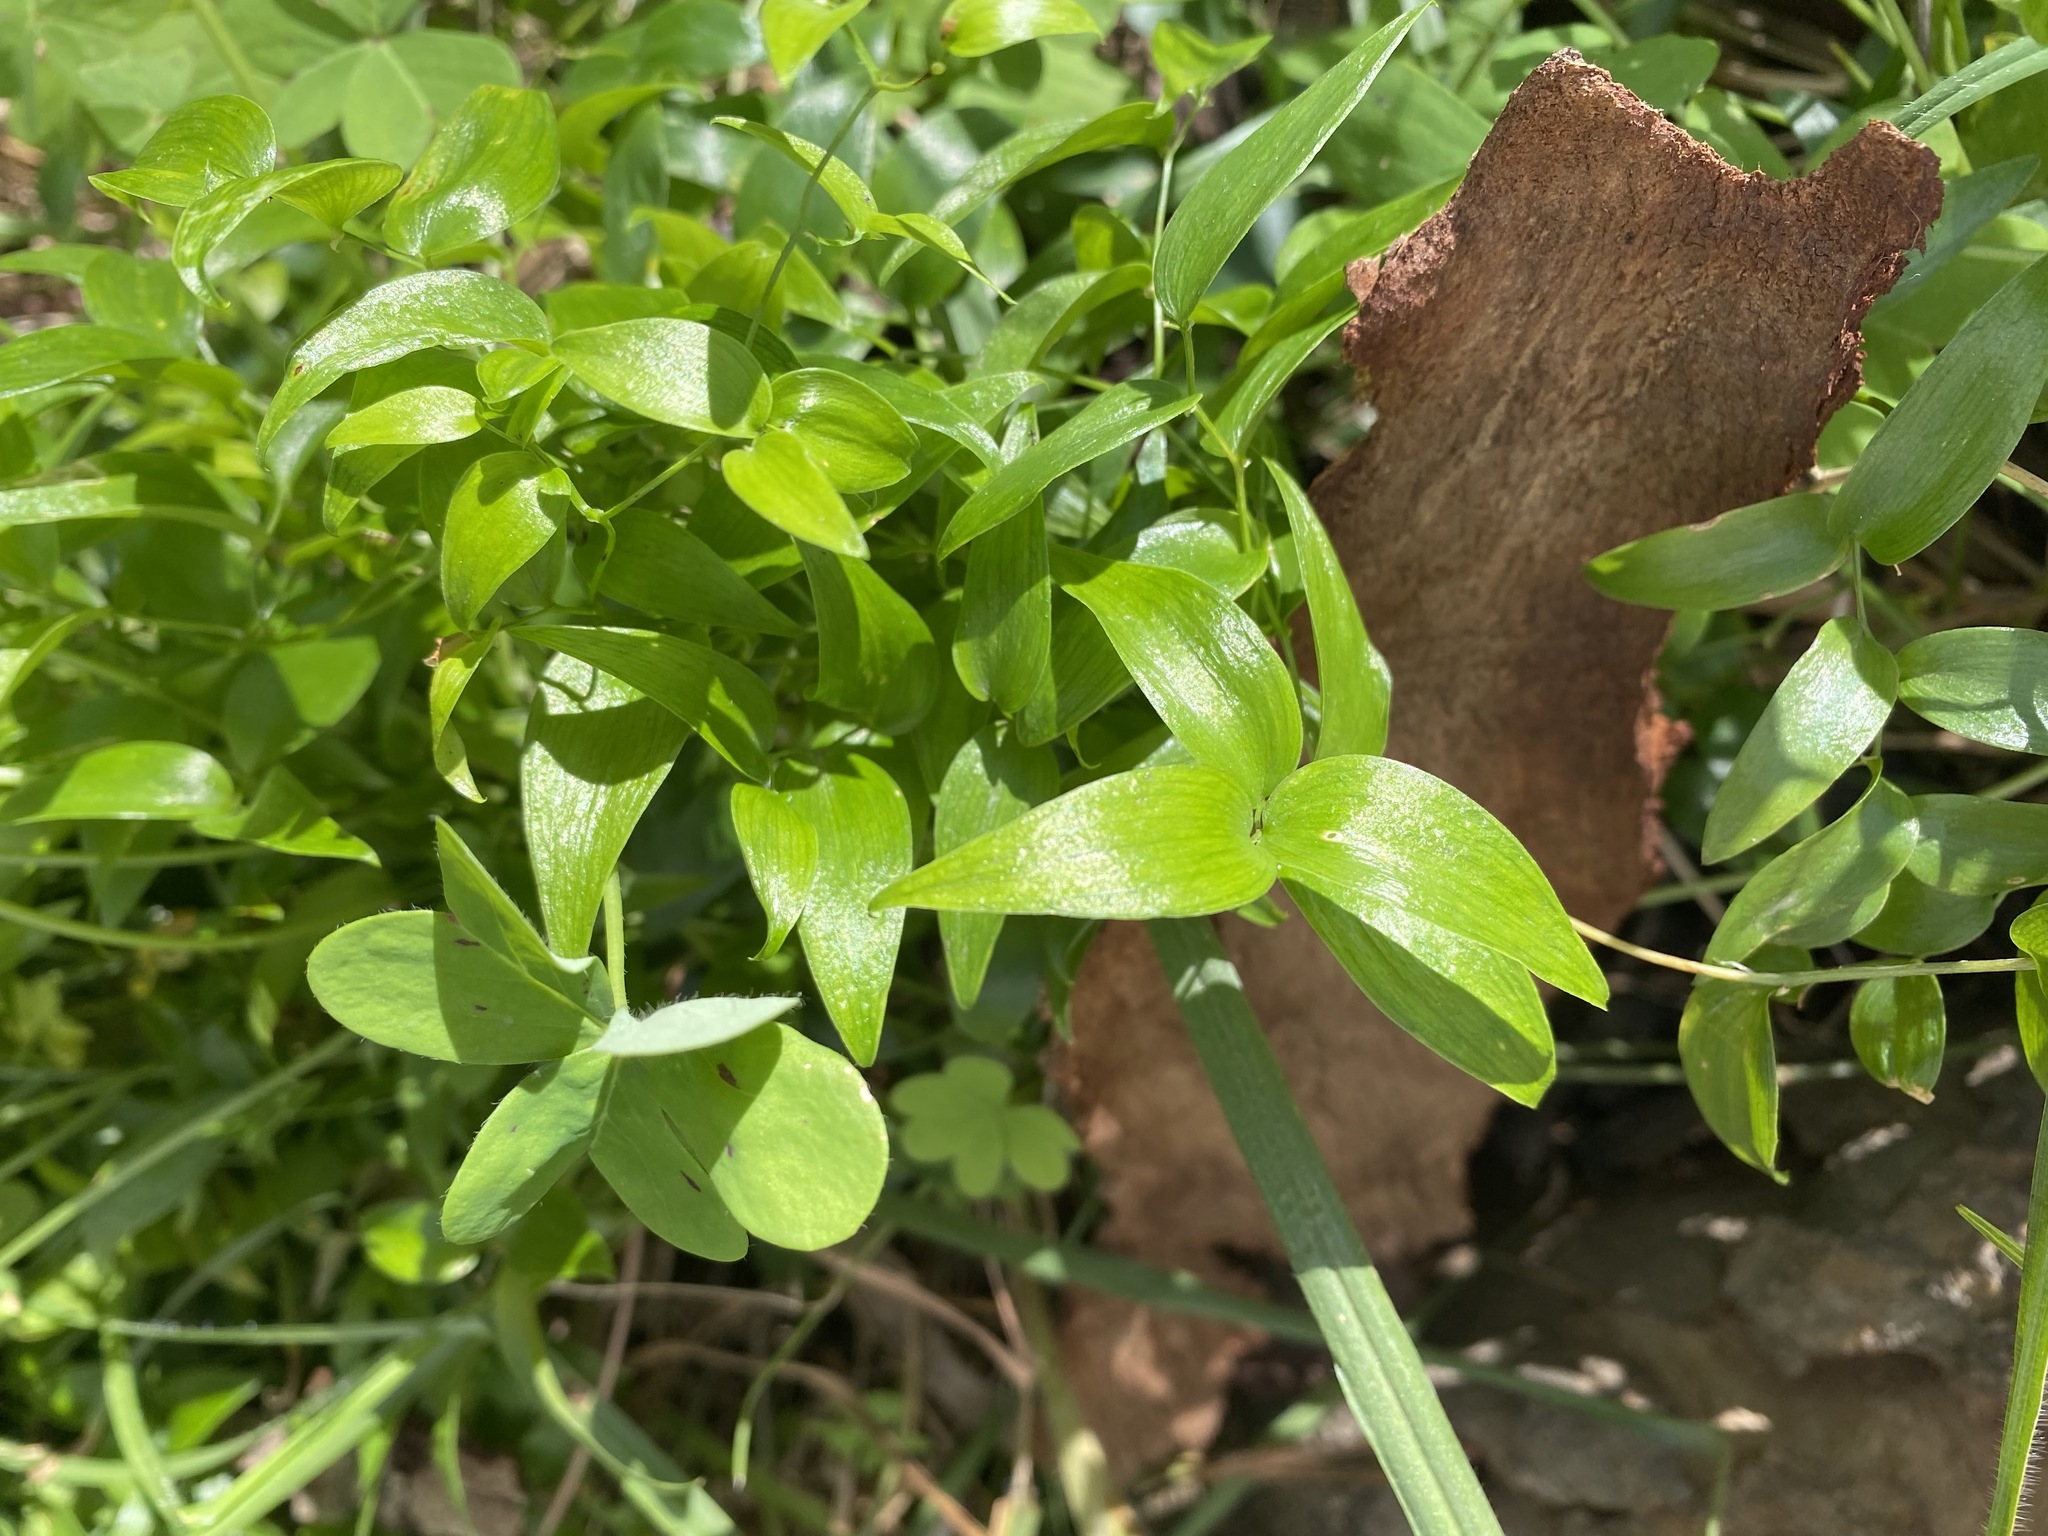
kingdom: Plantae
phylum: Tracheophyta
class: Liliopsida
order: Asparagales
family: Asparagaceae
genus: Asparagus
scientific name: Asparagus asparagoides
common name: African asparagus fern
